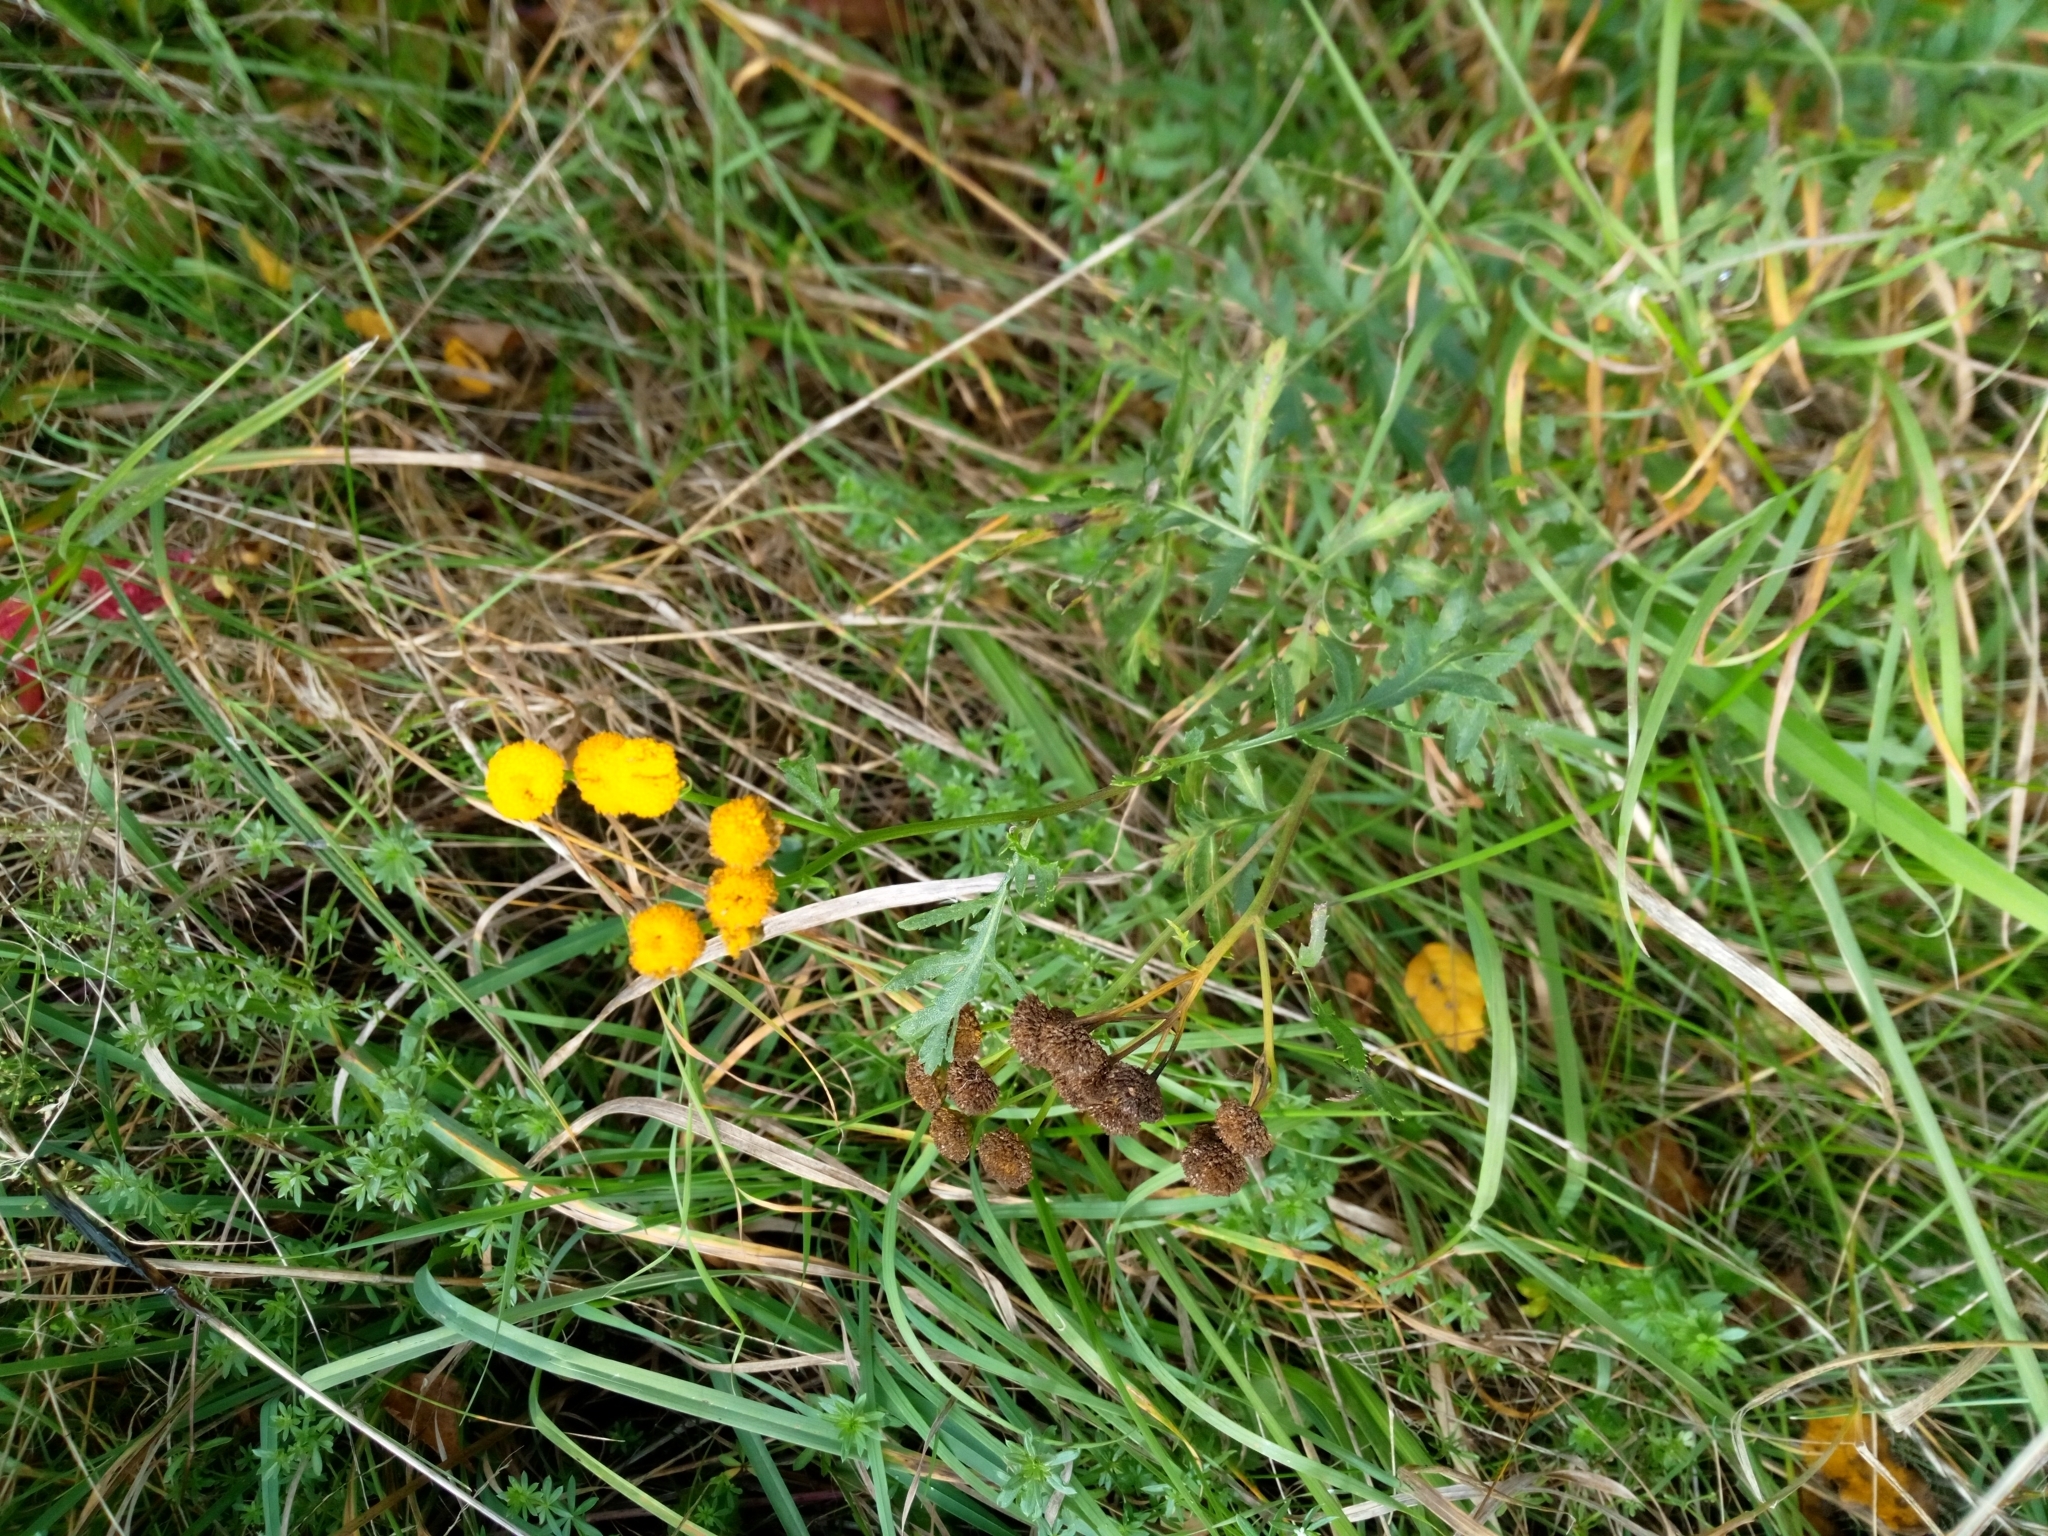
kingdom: Plantae
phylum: Tracheophyta
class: Magnoliopsida
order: Asterales
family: Asteraceae
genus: Tanacetum
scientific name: Tanacetum vulgare
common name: Common tansy
